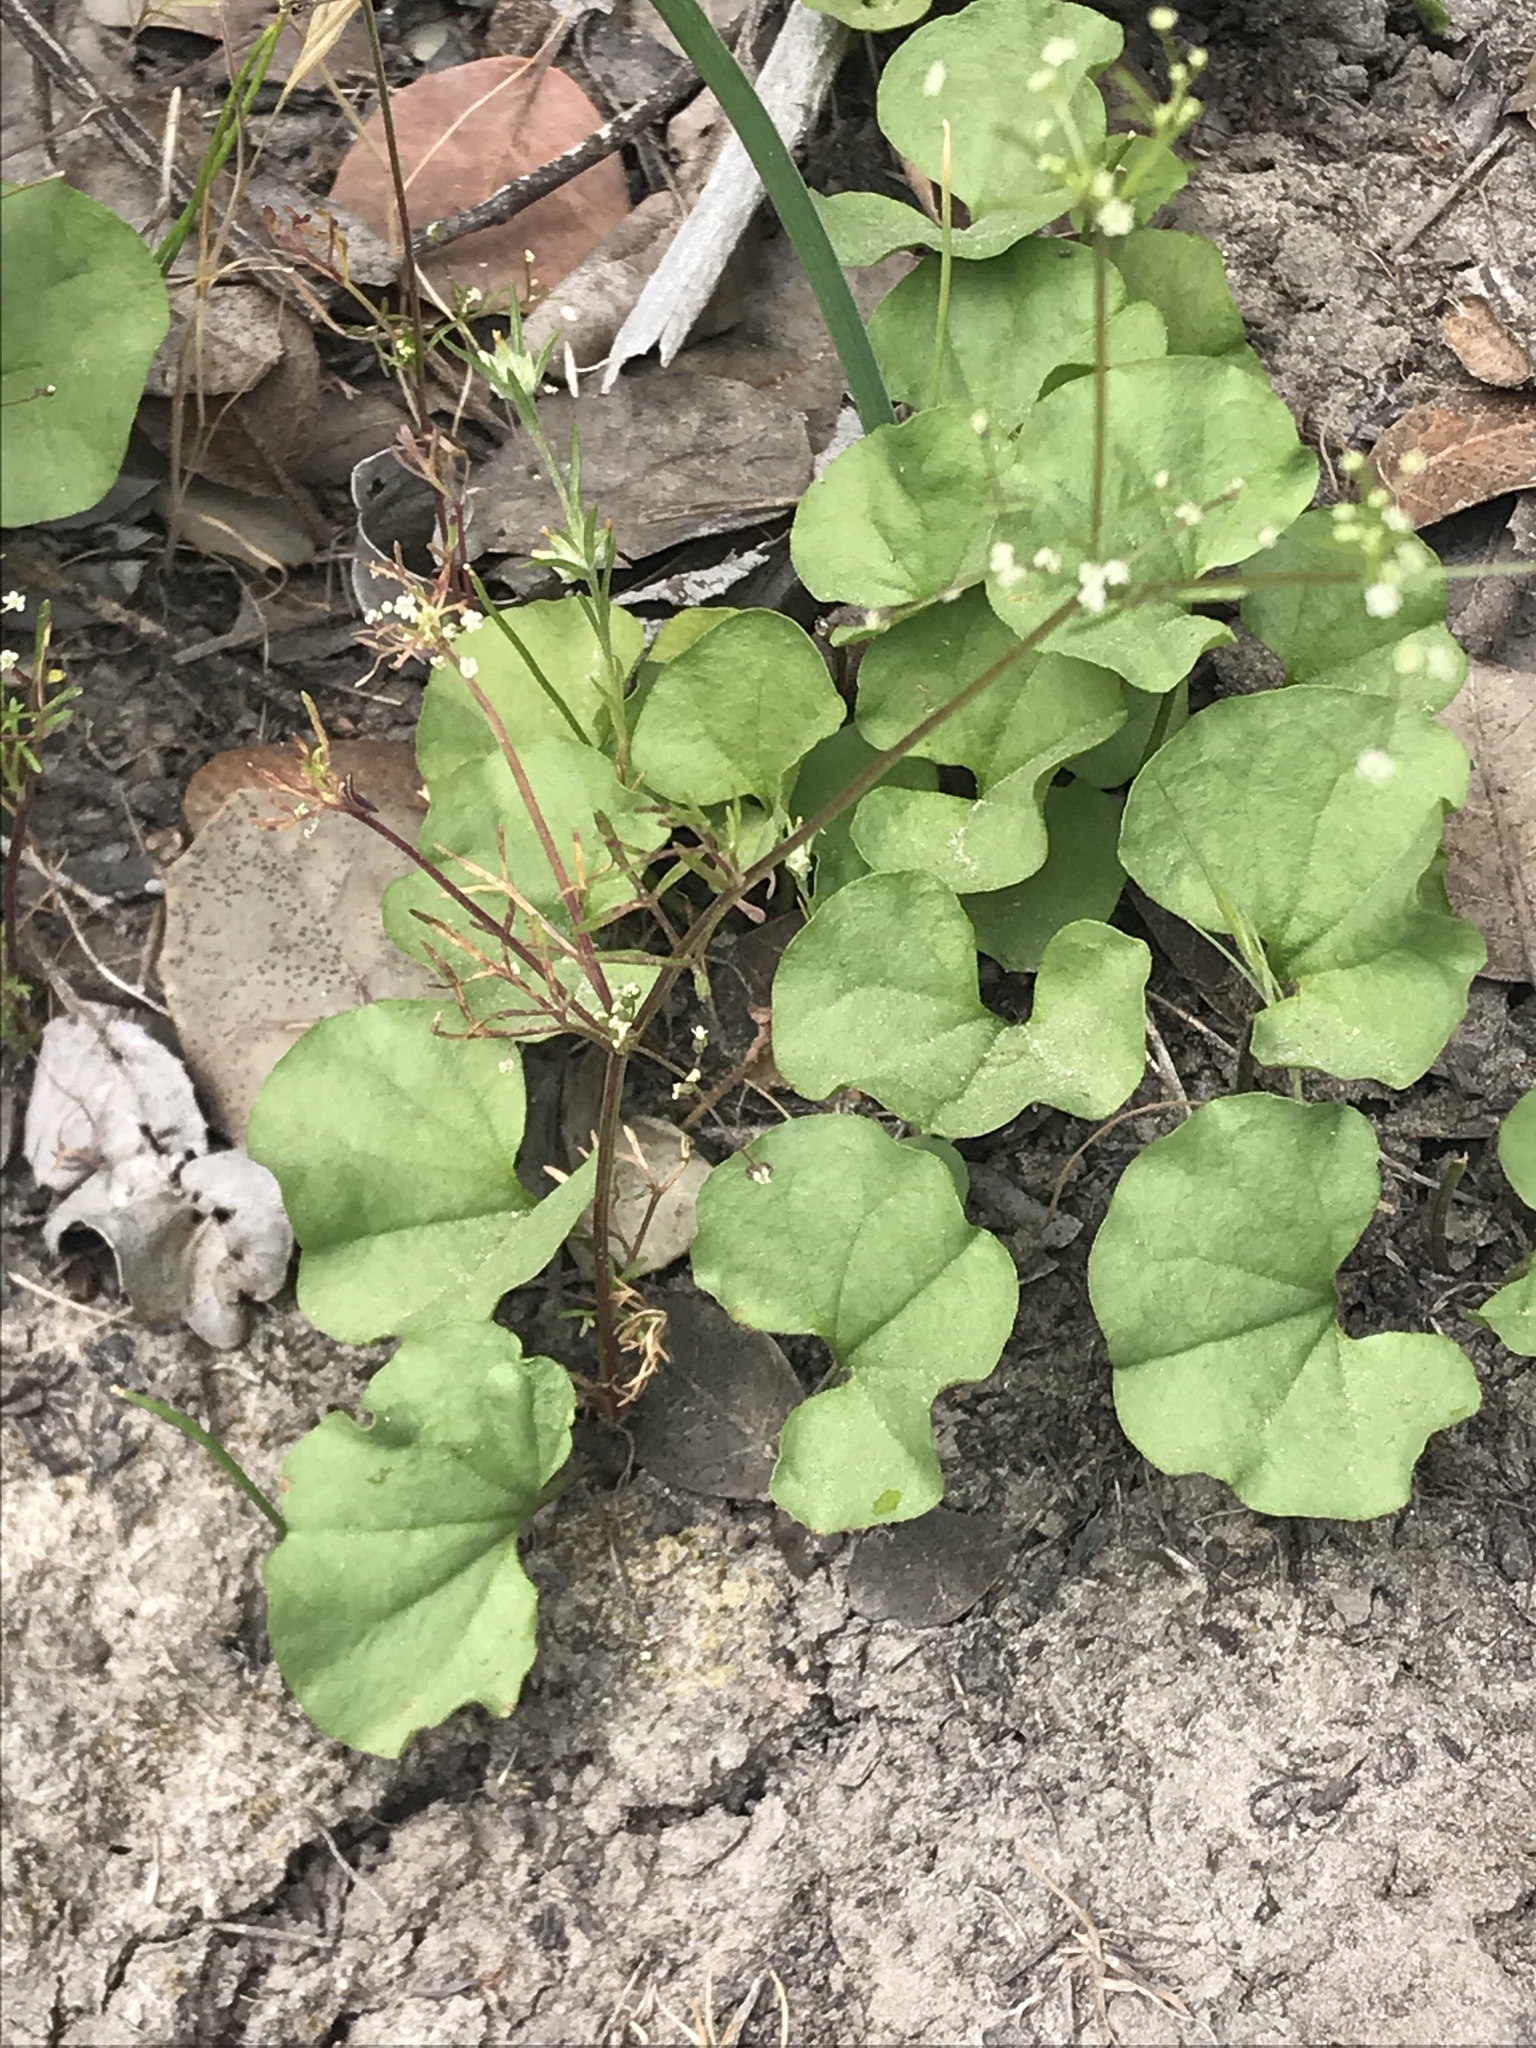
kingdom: Plantae
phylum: Tracheophyta
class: Magnoliopsida
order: Solanales
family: Convolvulaceae
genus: Dichondra
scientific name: Dichondra occidentalis
